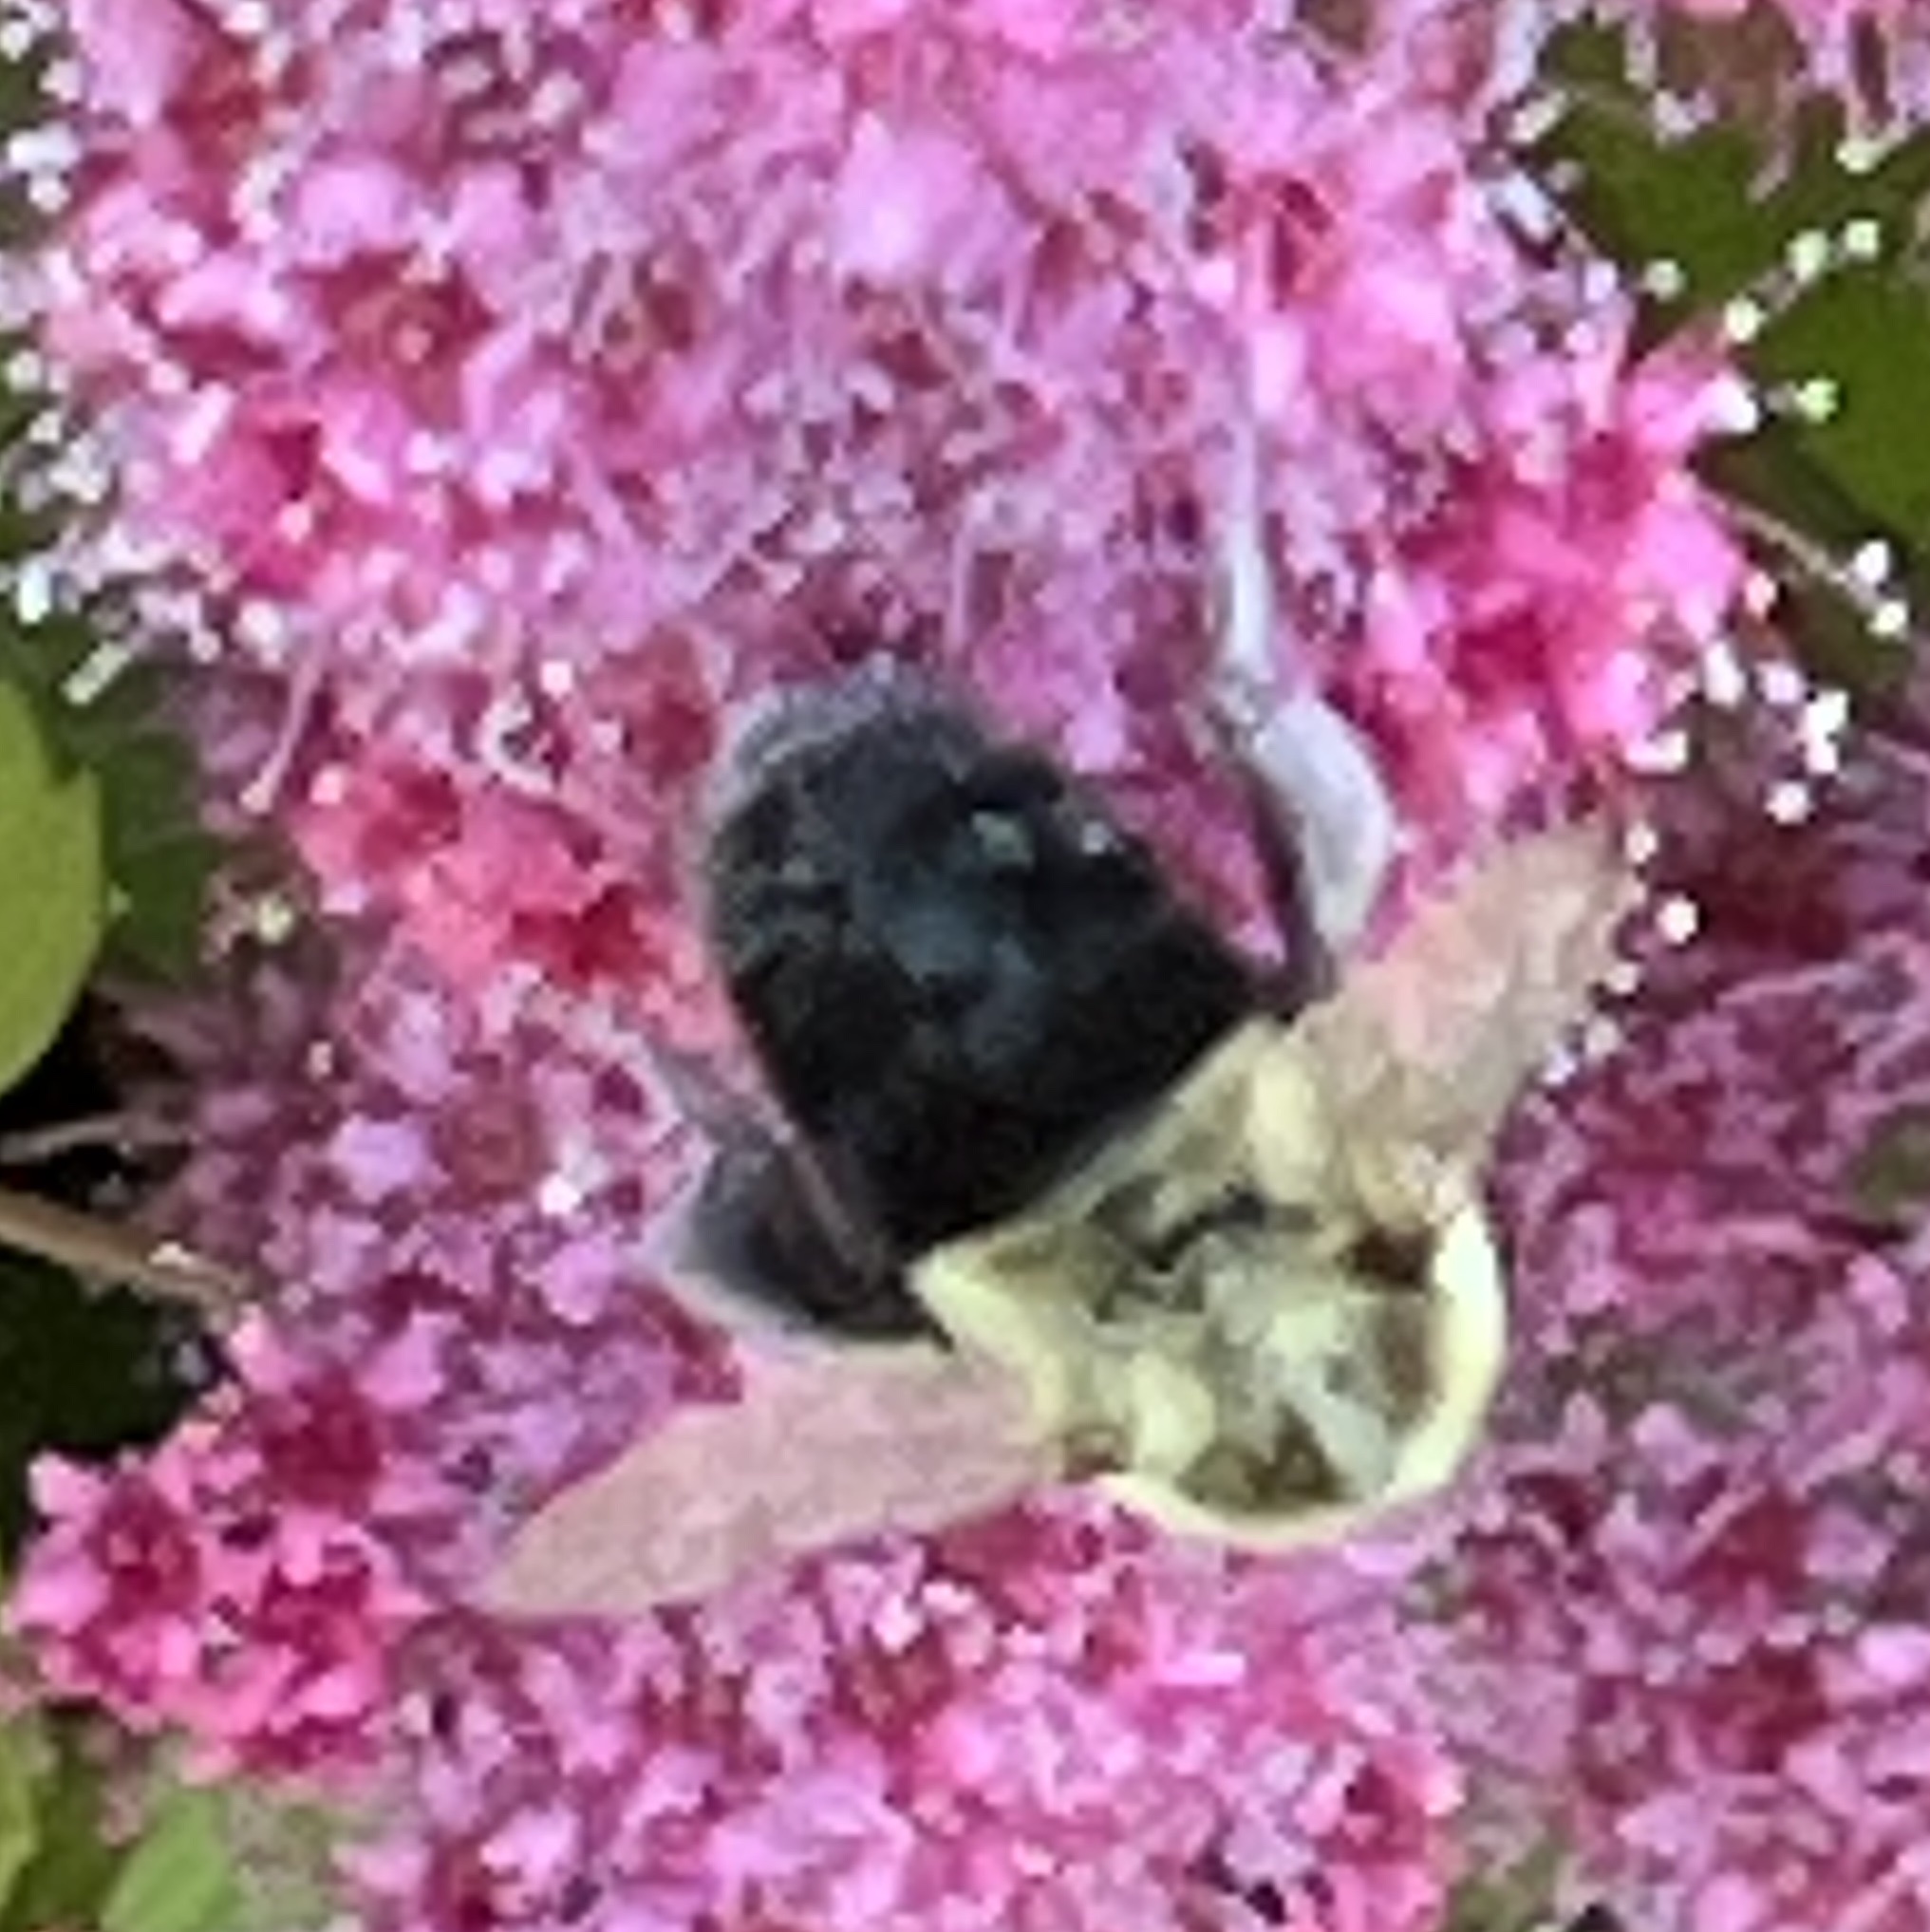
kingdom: Animalia
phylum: Arthropoda
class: Insecta
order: Hymenoptera
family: Apidae
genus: Bombus
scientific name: Bombus impatiens
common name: Common eastern bumble bee
